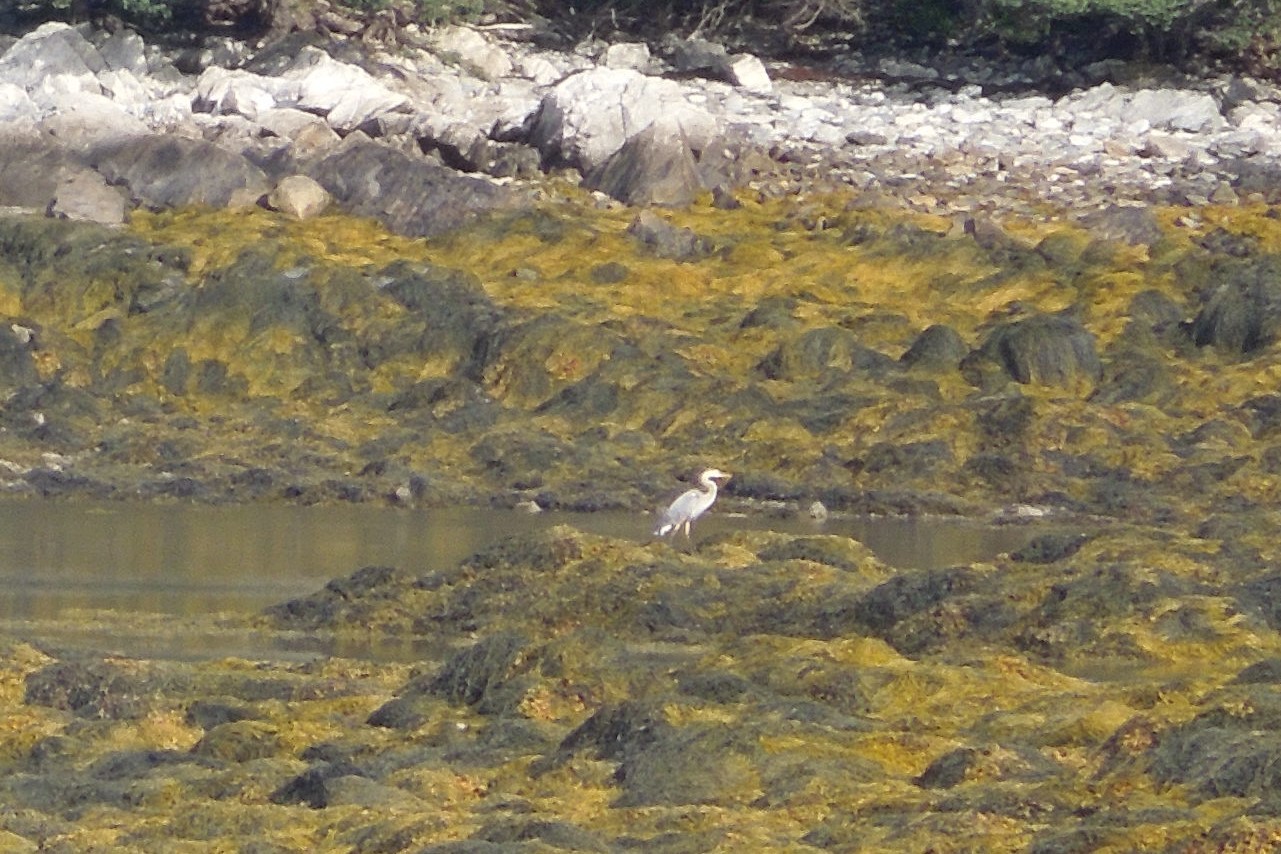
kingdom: Animalia
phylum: Chordata
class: Aves
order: Pelecaniformes
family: Ardeidae
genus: Ardea
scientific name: Ardea herodias
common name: Great blue heron
